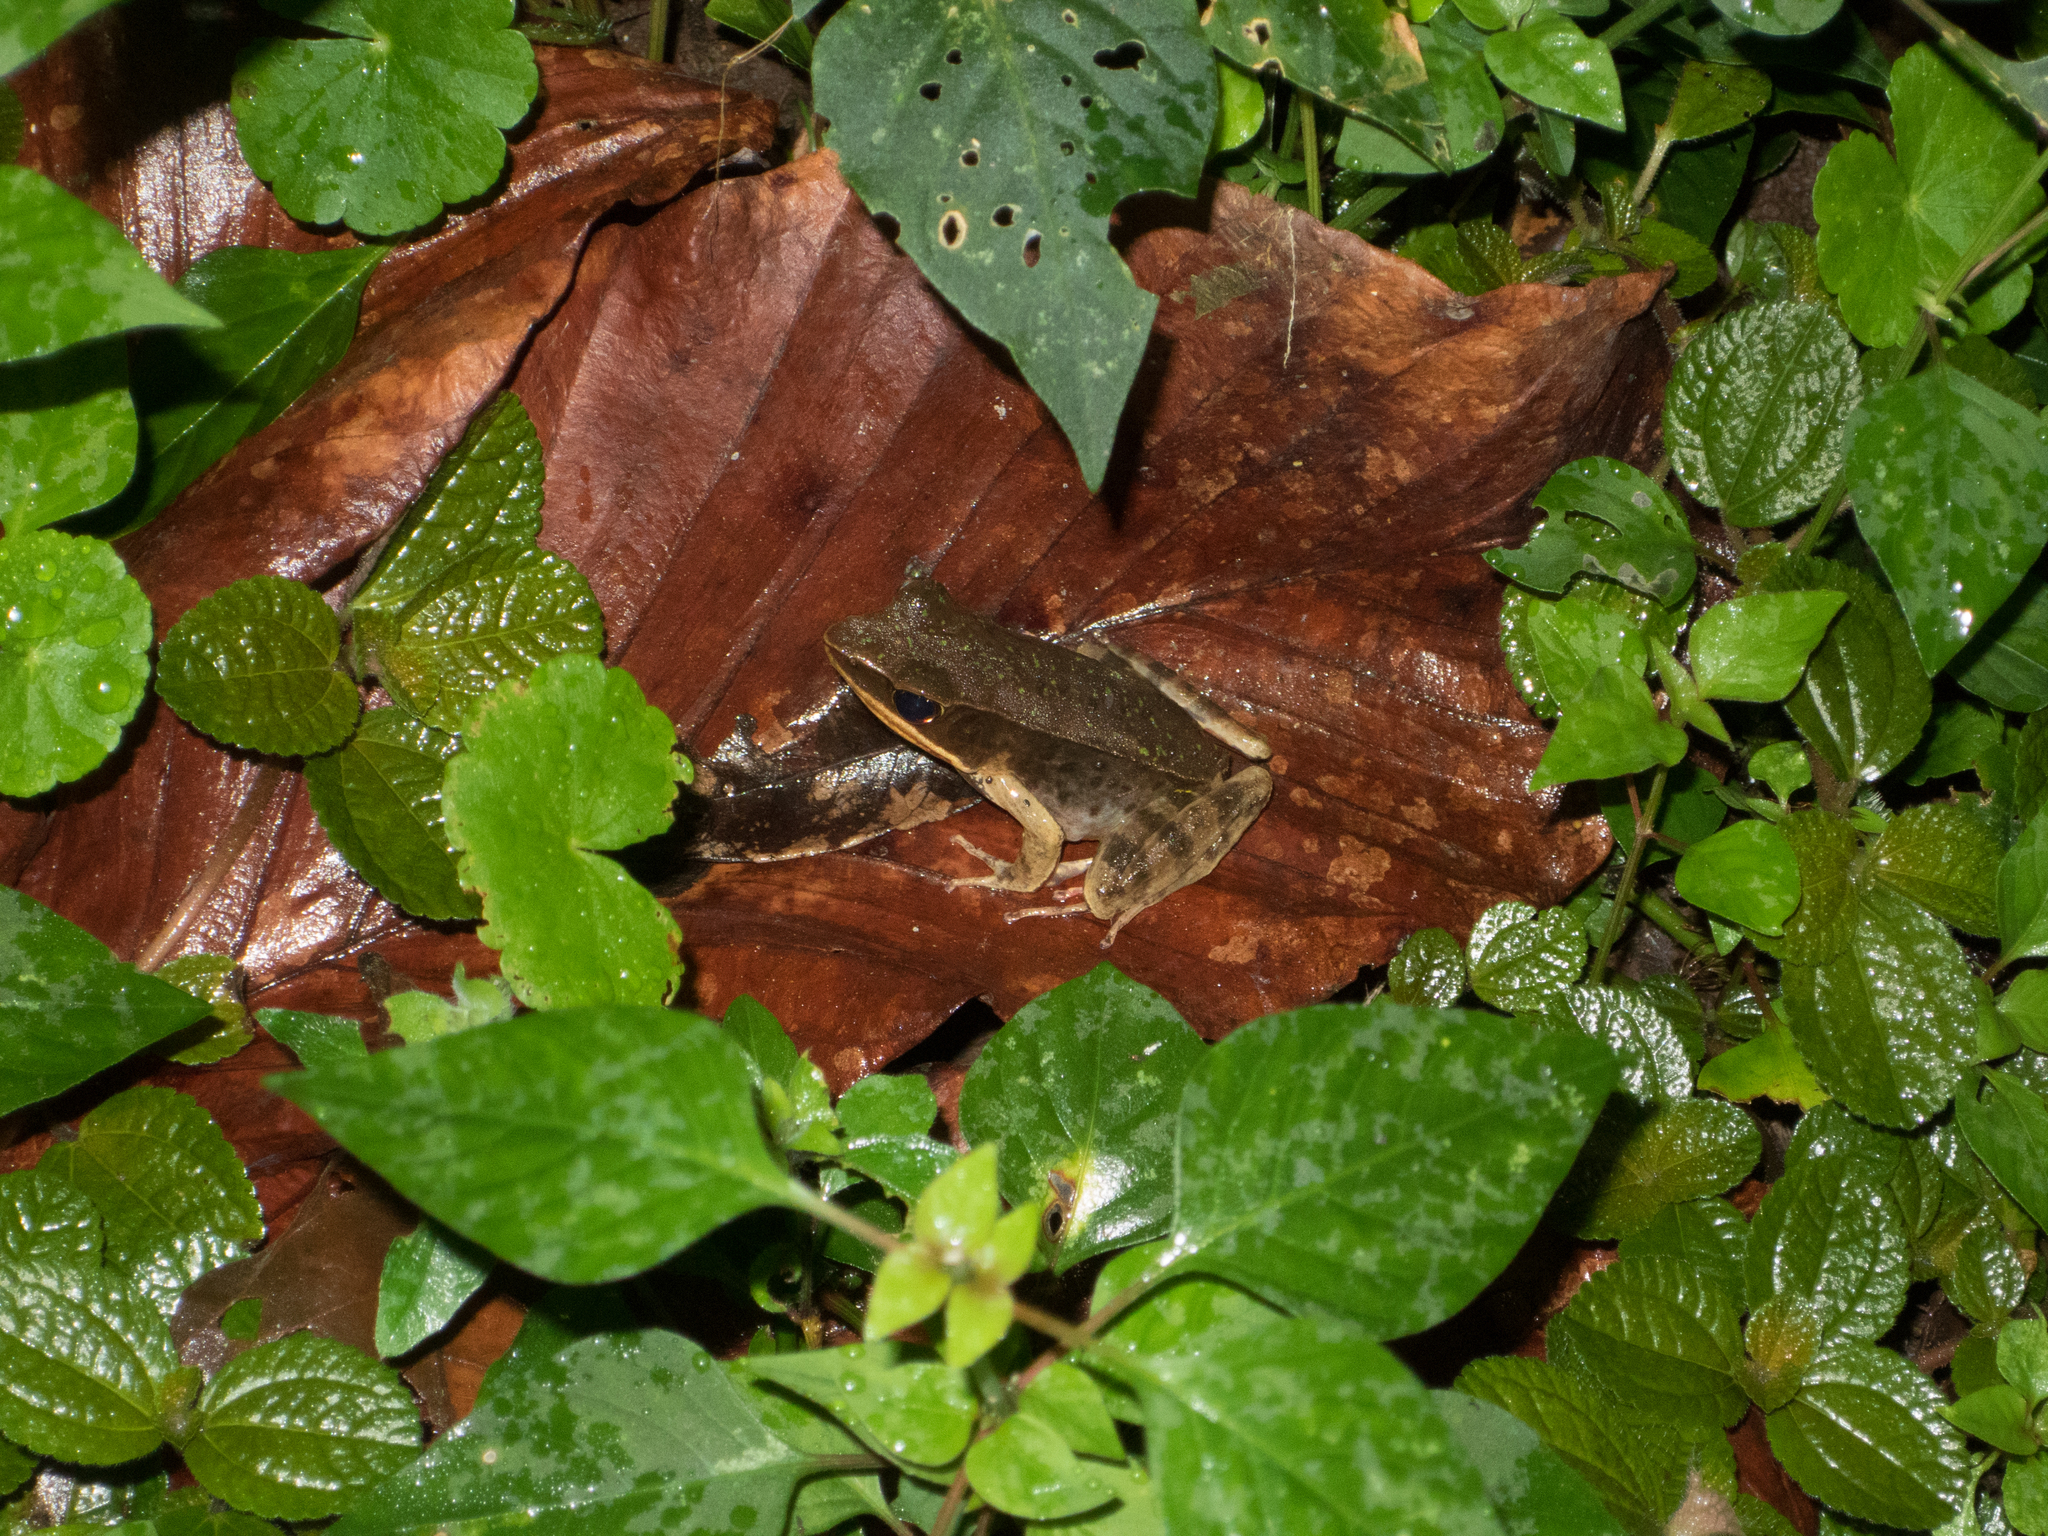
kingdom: Animalia
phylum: Chordata
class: Amphibia
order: Anura
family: Ranidae
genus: Lithobates
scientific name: Lithobates warszewitschii
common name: Warszewitsch's frog
